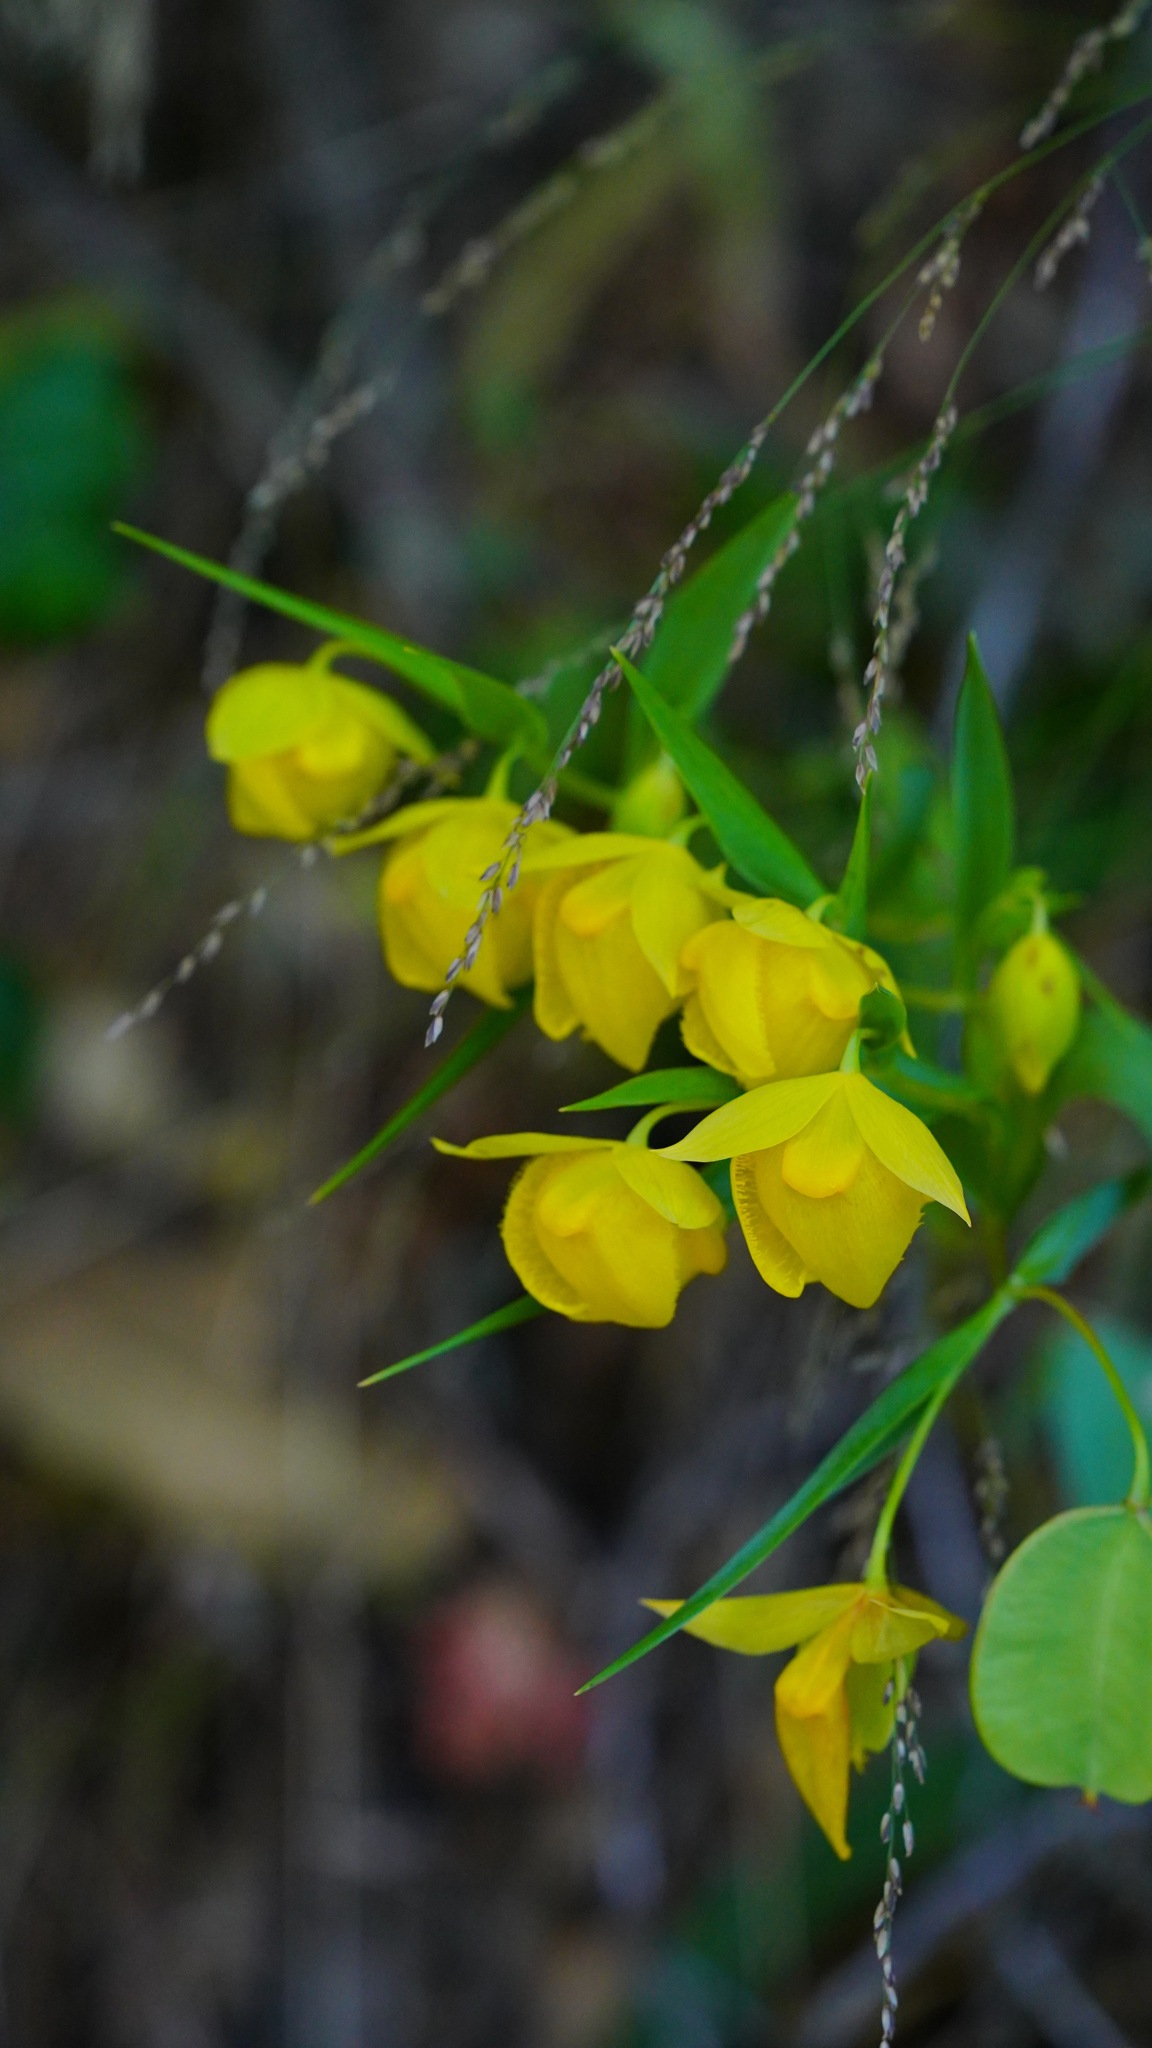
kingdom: Plantae
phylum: Tracheophyta
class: Liliopsida
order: Liliales
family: Liliaceae
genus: Calochortus
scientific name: Calochortus pulchellus
